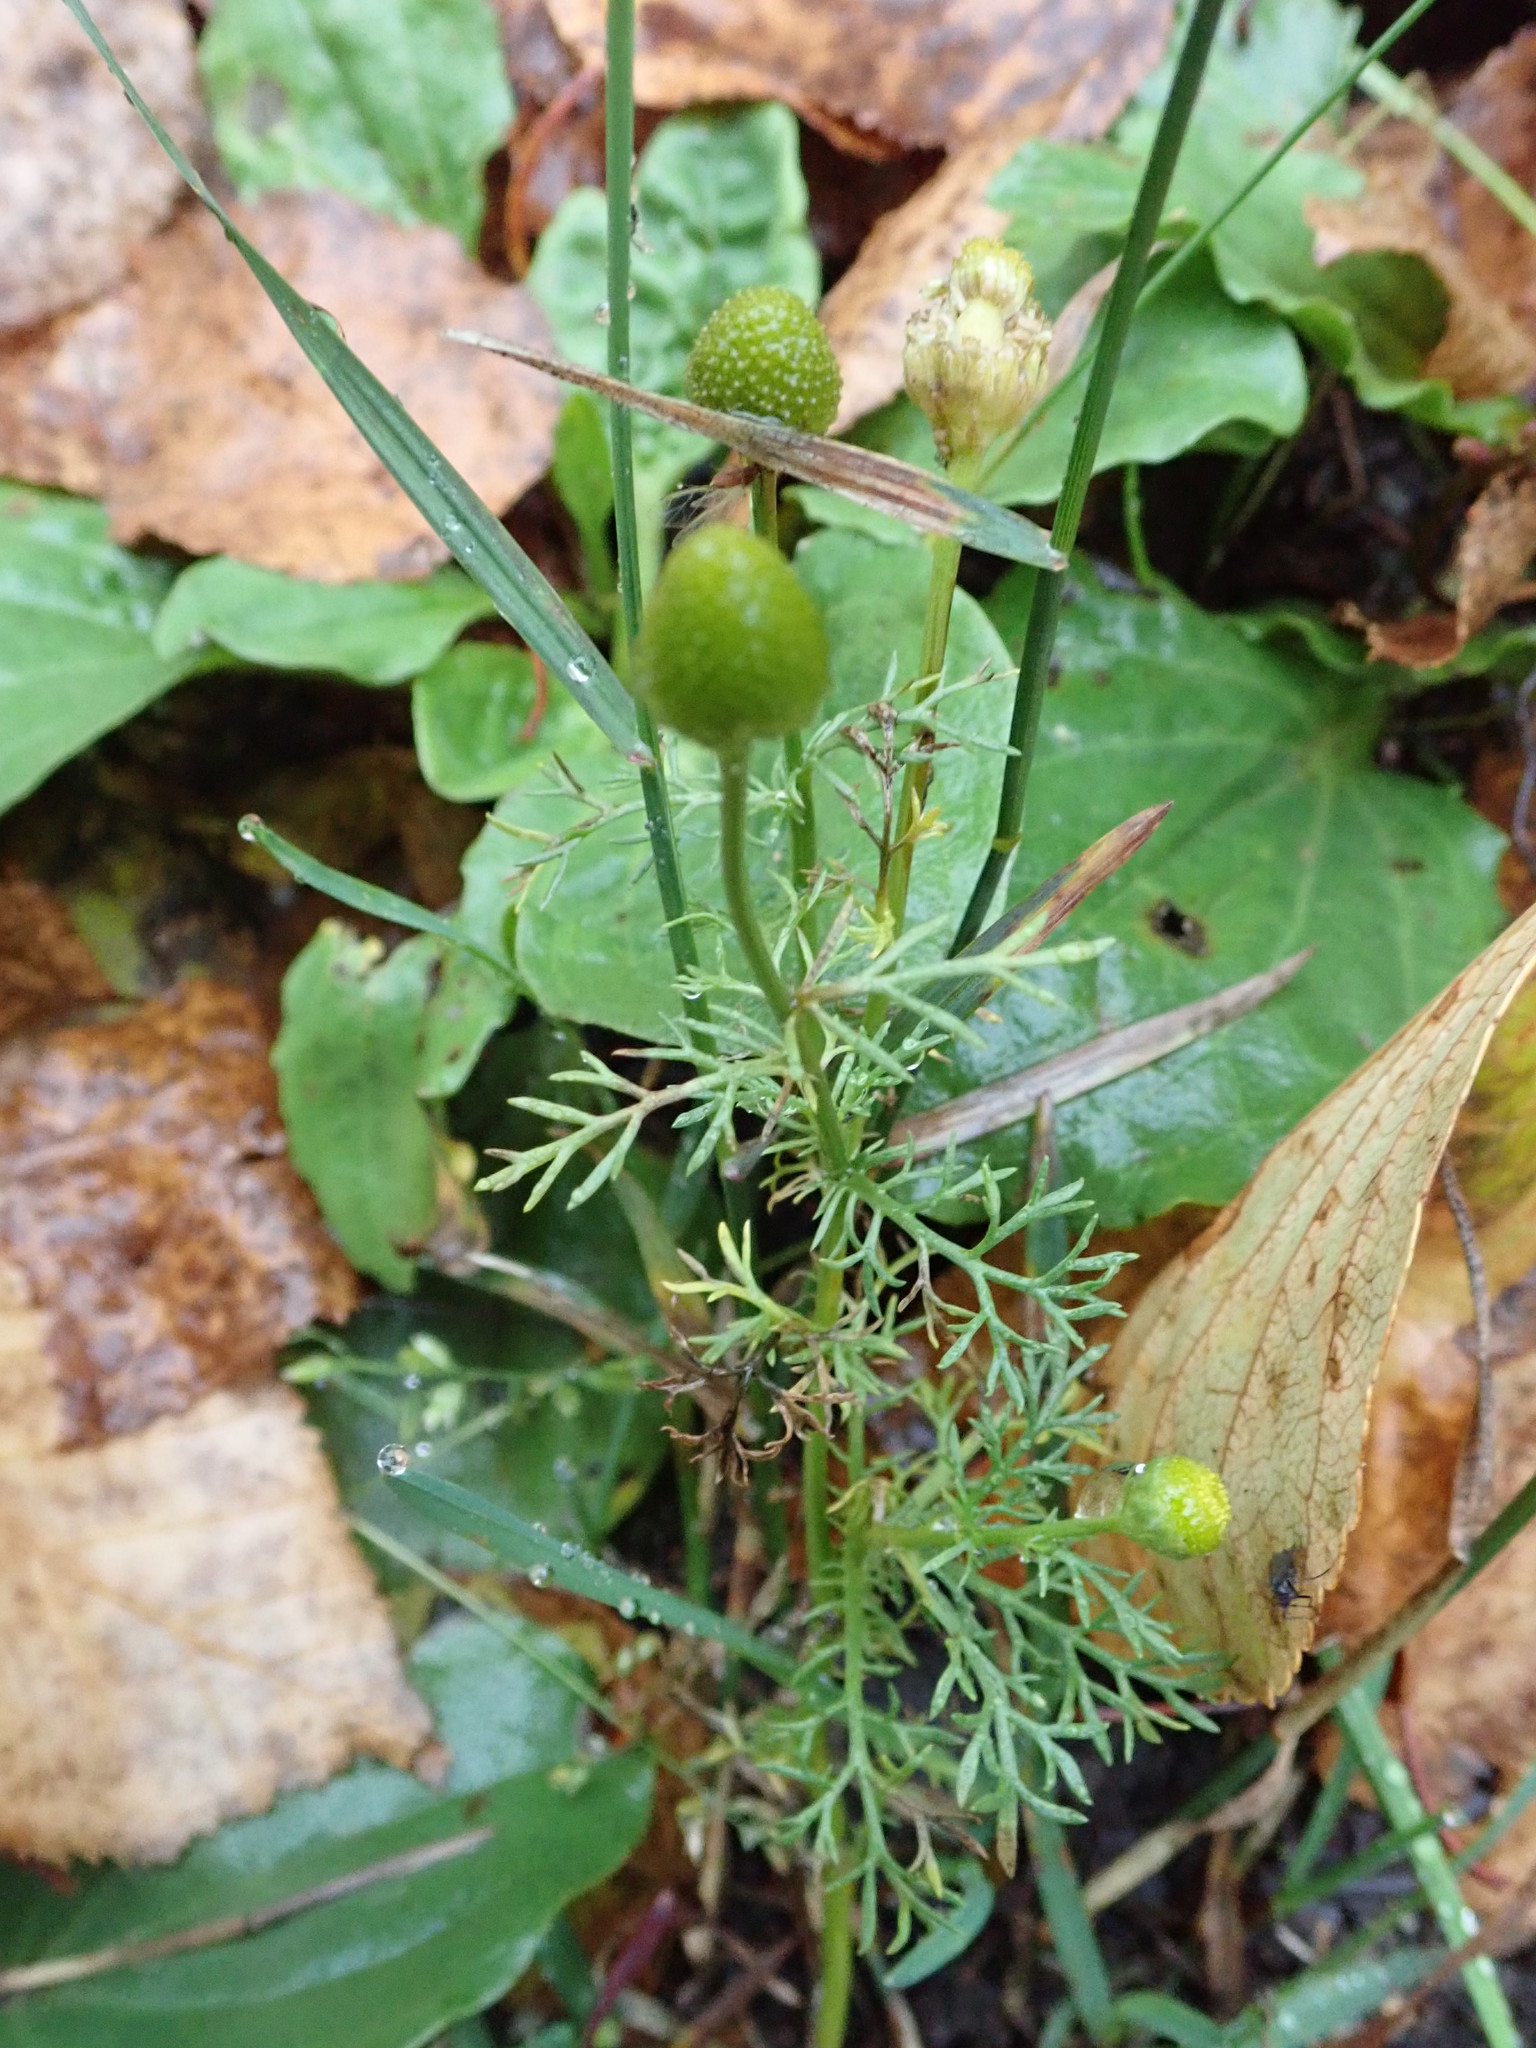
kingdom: Plantae
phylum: Tracheophyta
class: Magnoliopsida
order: Asterales
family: Asteraceae
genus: Matricaria
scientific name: Matricaria discoidea
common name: Disc mayweed
